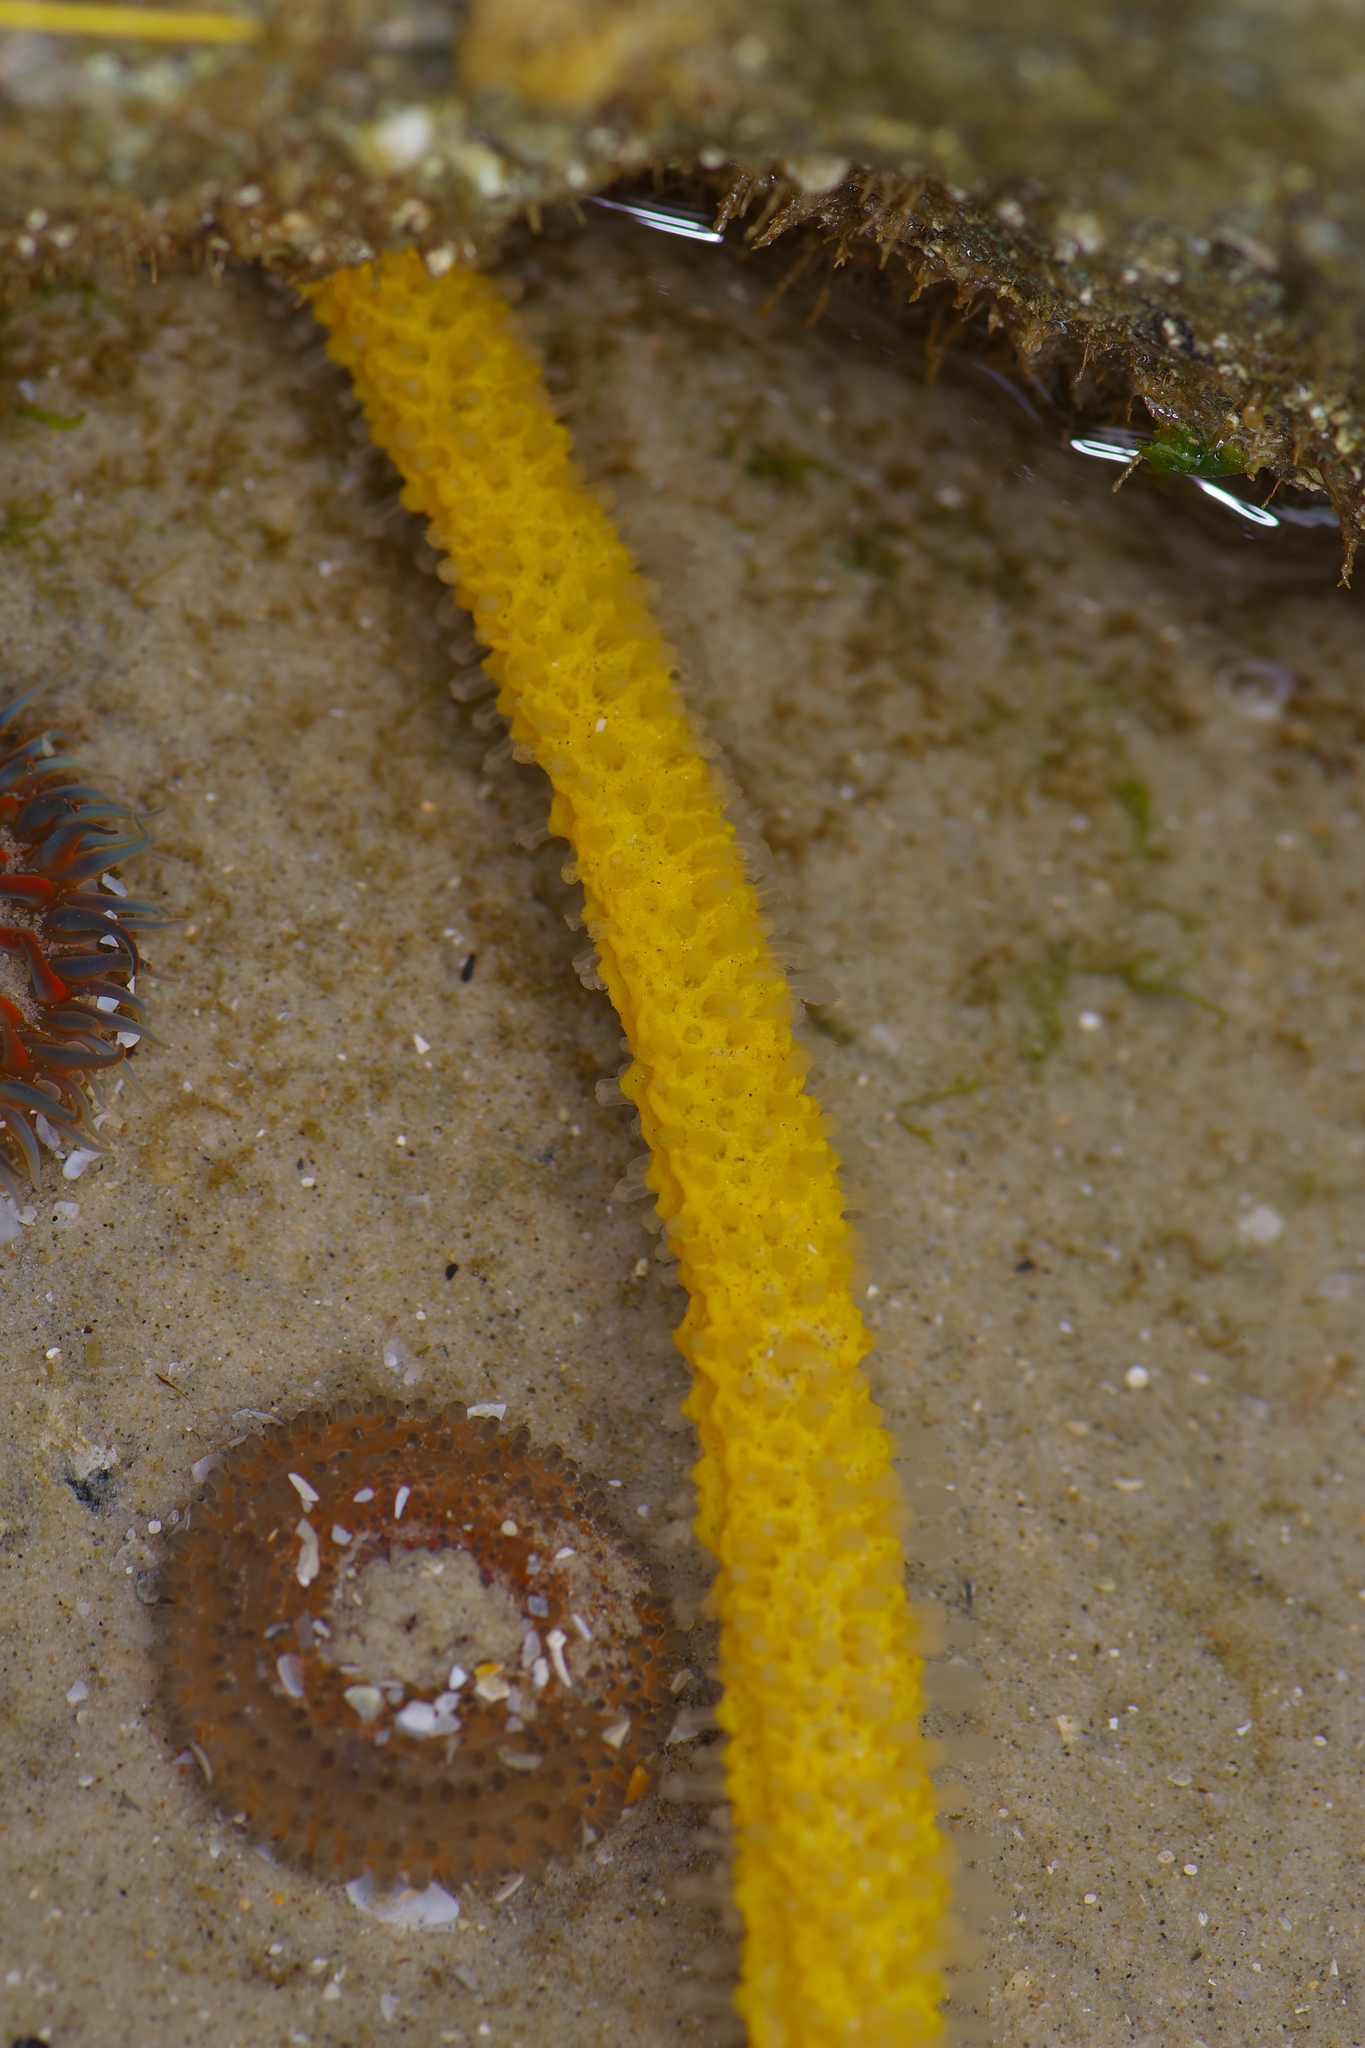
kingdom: Animalia
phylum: Cnidaria
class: Anthozoa
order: Malacalcyonacea
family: Gorgoniidae
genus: Leptogorgia
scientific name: Leptogorgia setacea
